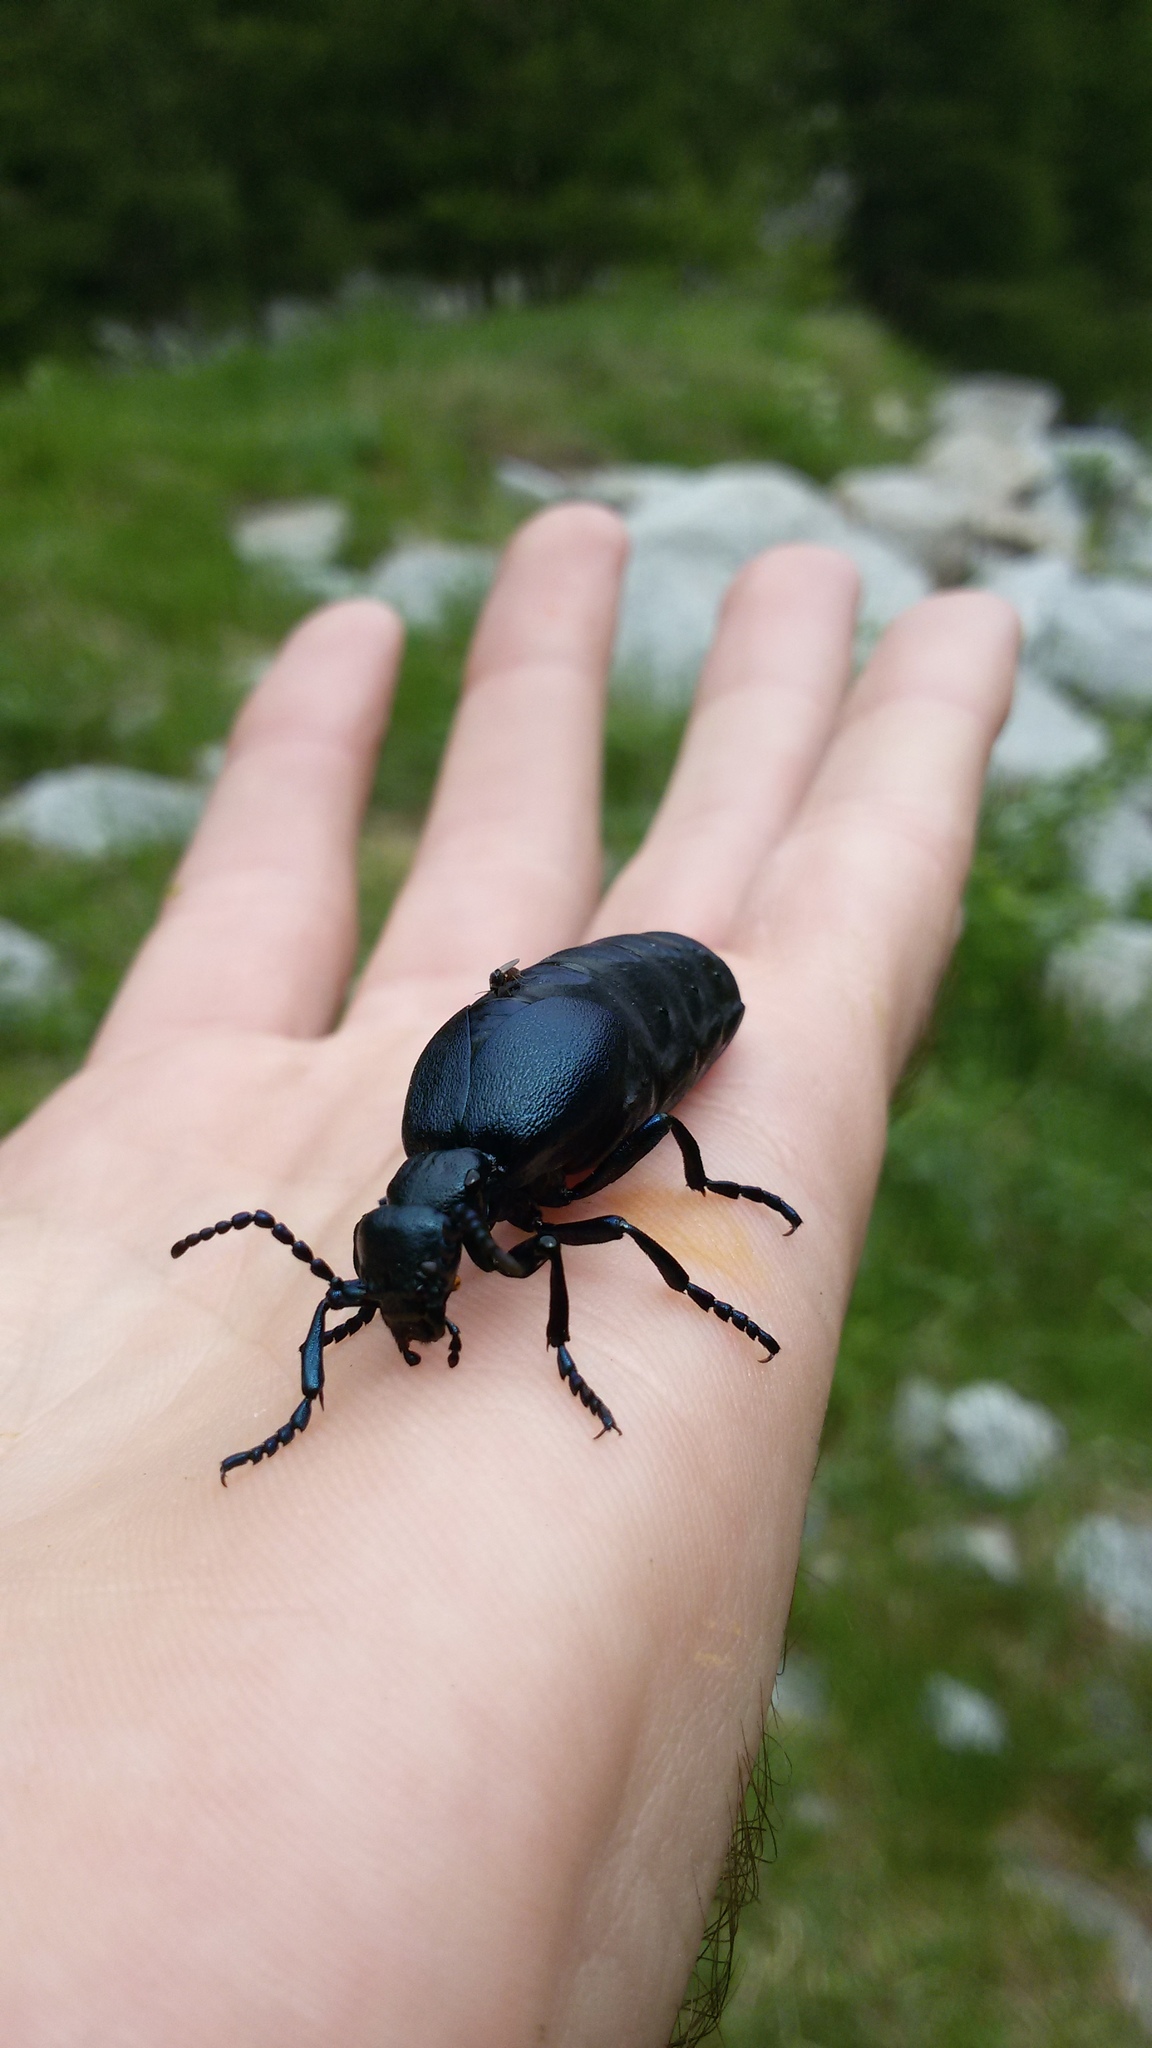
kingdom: Animalia
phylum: Arthropoda
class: Insecta
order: Coleoptera
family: Meloidae
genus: Meloe
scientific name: Meloe violaceus
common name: Violet oil-beetle
